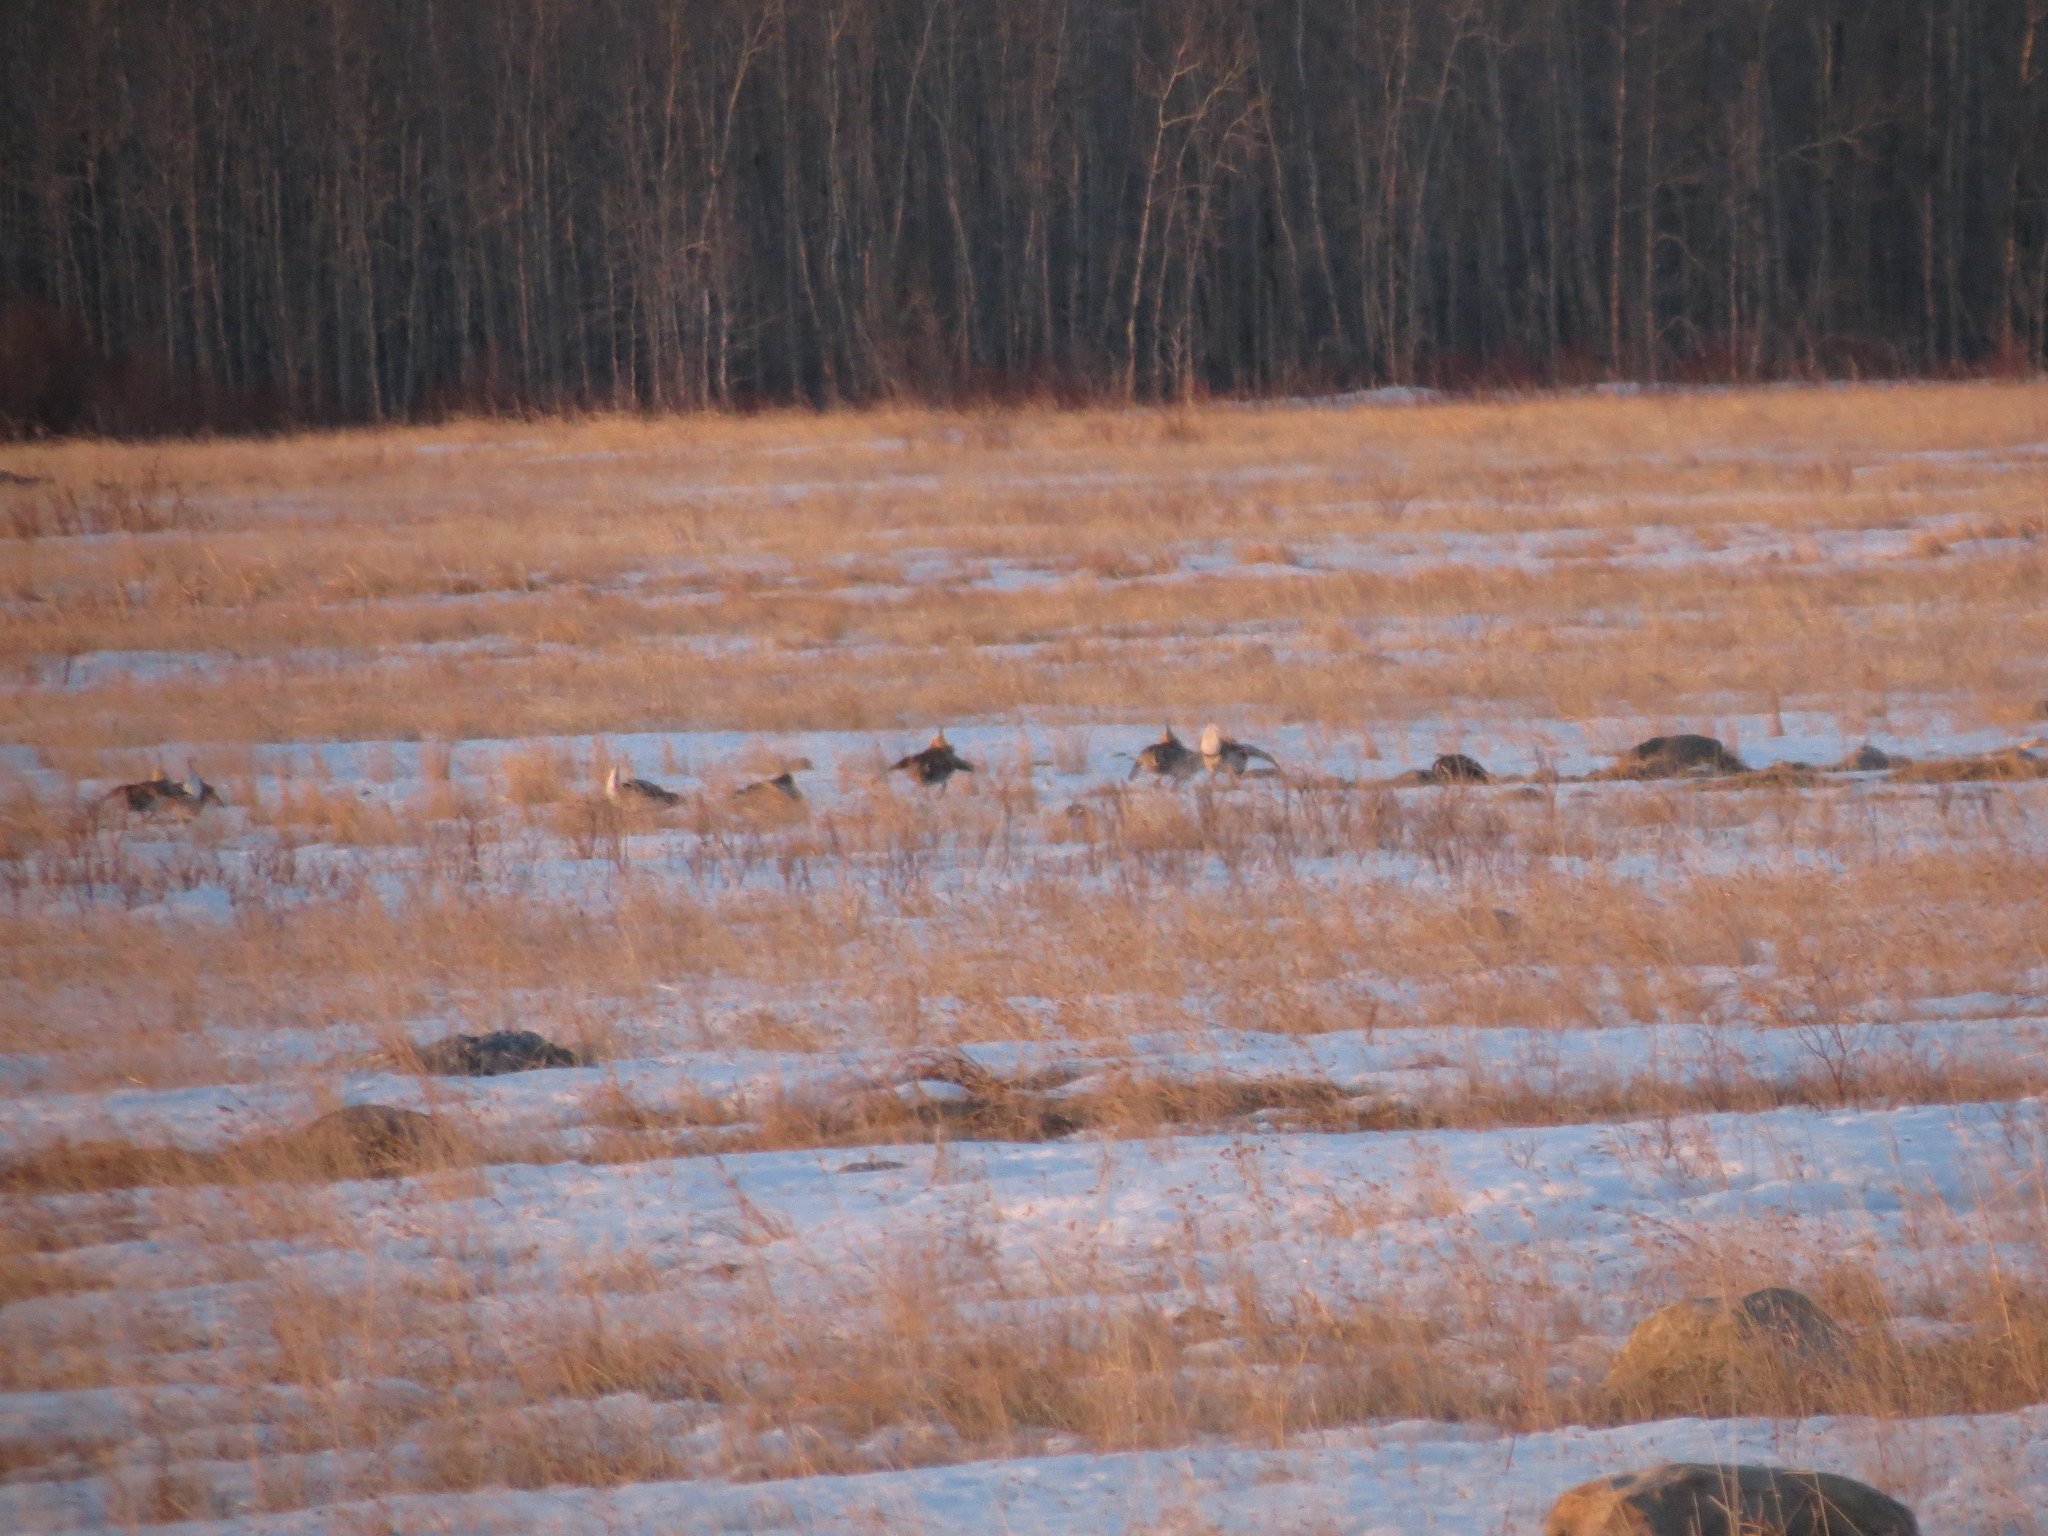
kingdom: Animalia
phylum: Chordata
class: Aves
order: Galliformes
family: Phasianidae
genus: Tympanuchus
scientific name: Tympanuchus phasianellus
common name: Sharp-tailed grouse
